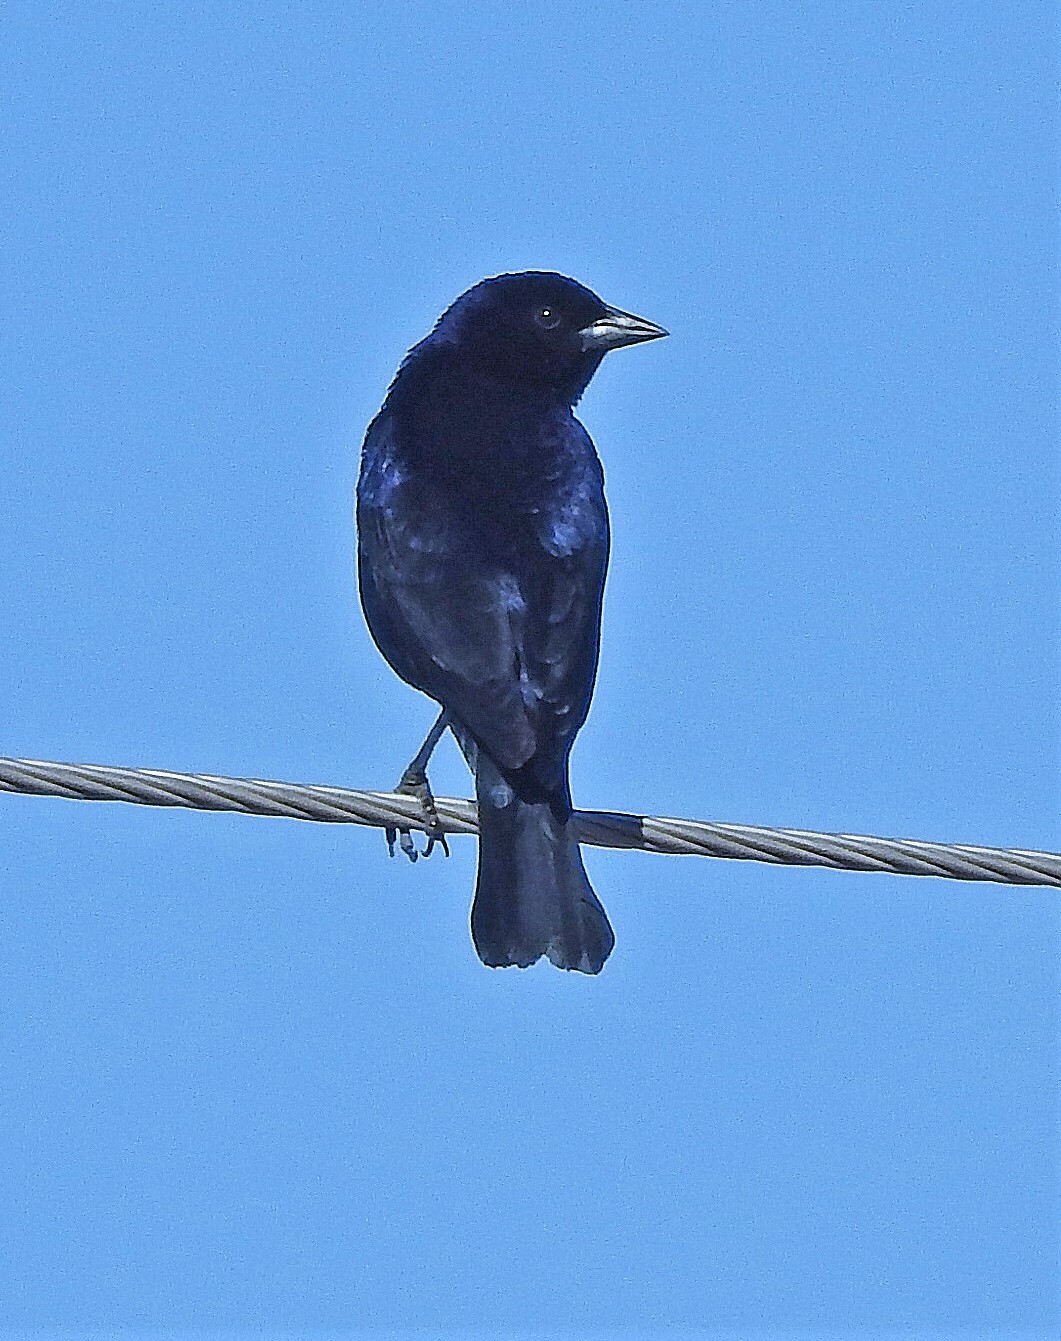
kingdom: Animalia
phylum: Chordata
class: Aves
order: Passeriformes
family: Icteridae
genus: Molothrus
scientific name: Molothrus bonariensis
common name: Shiny cowbird
